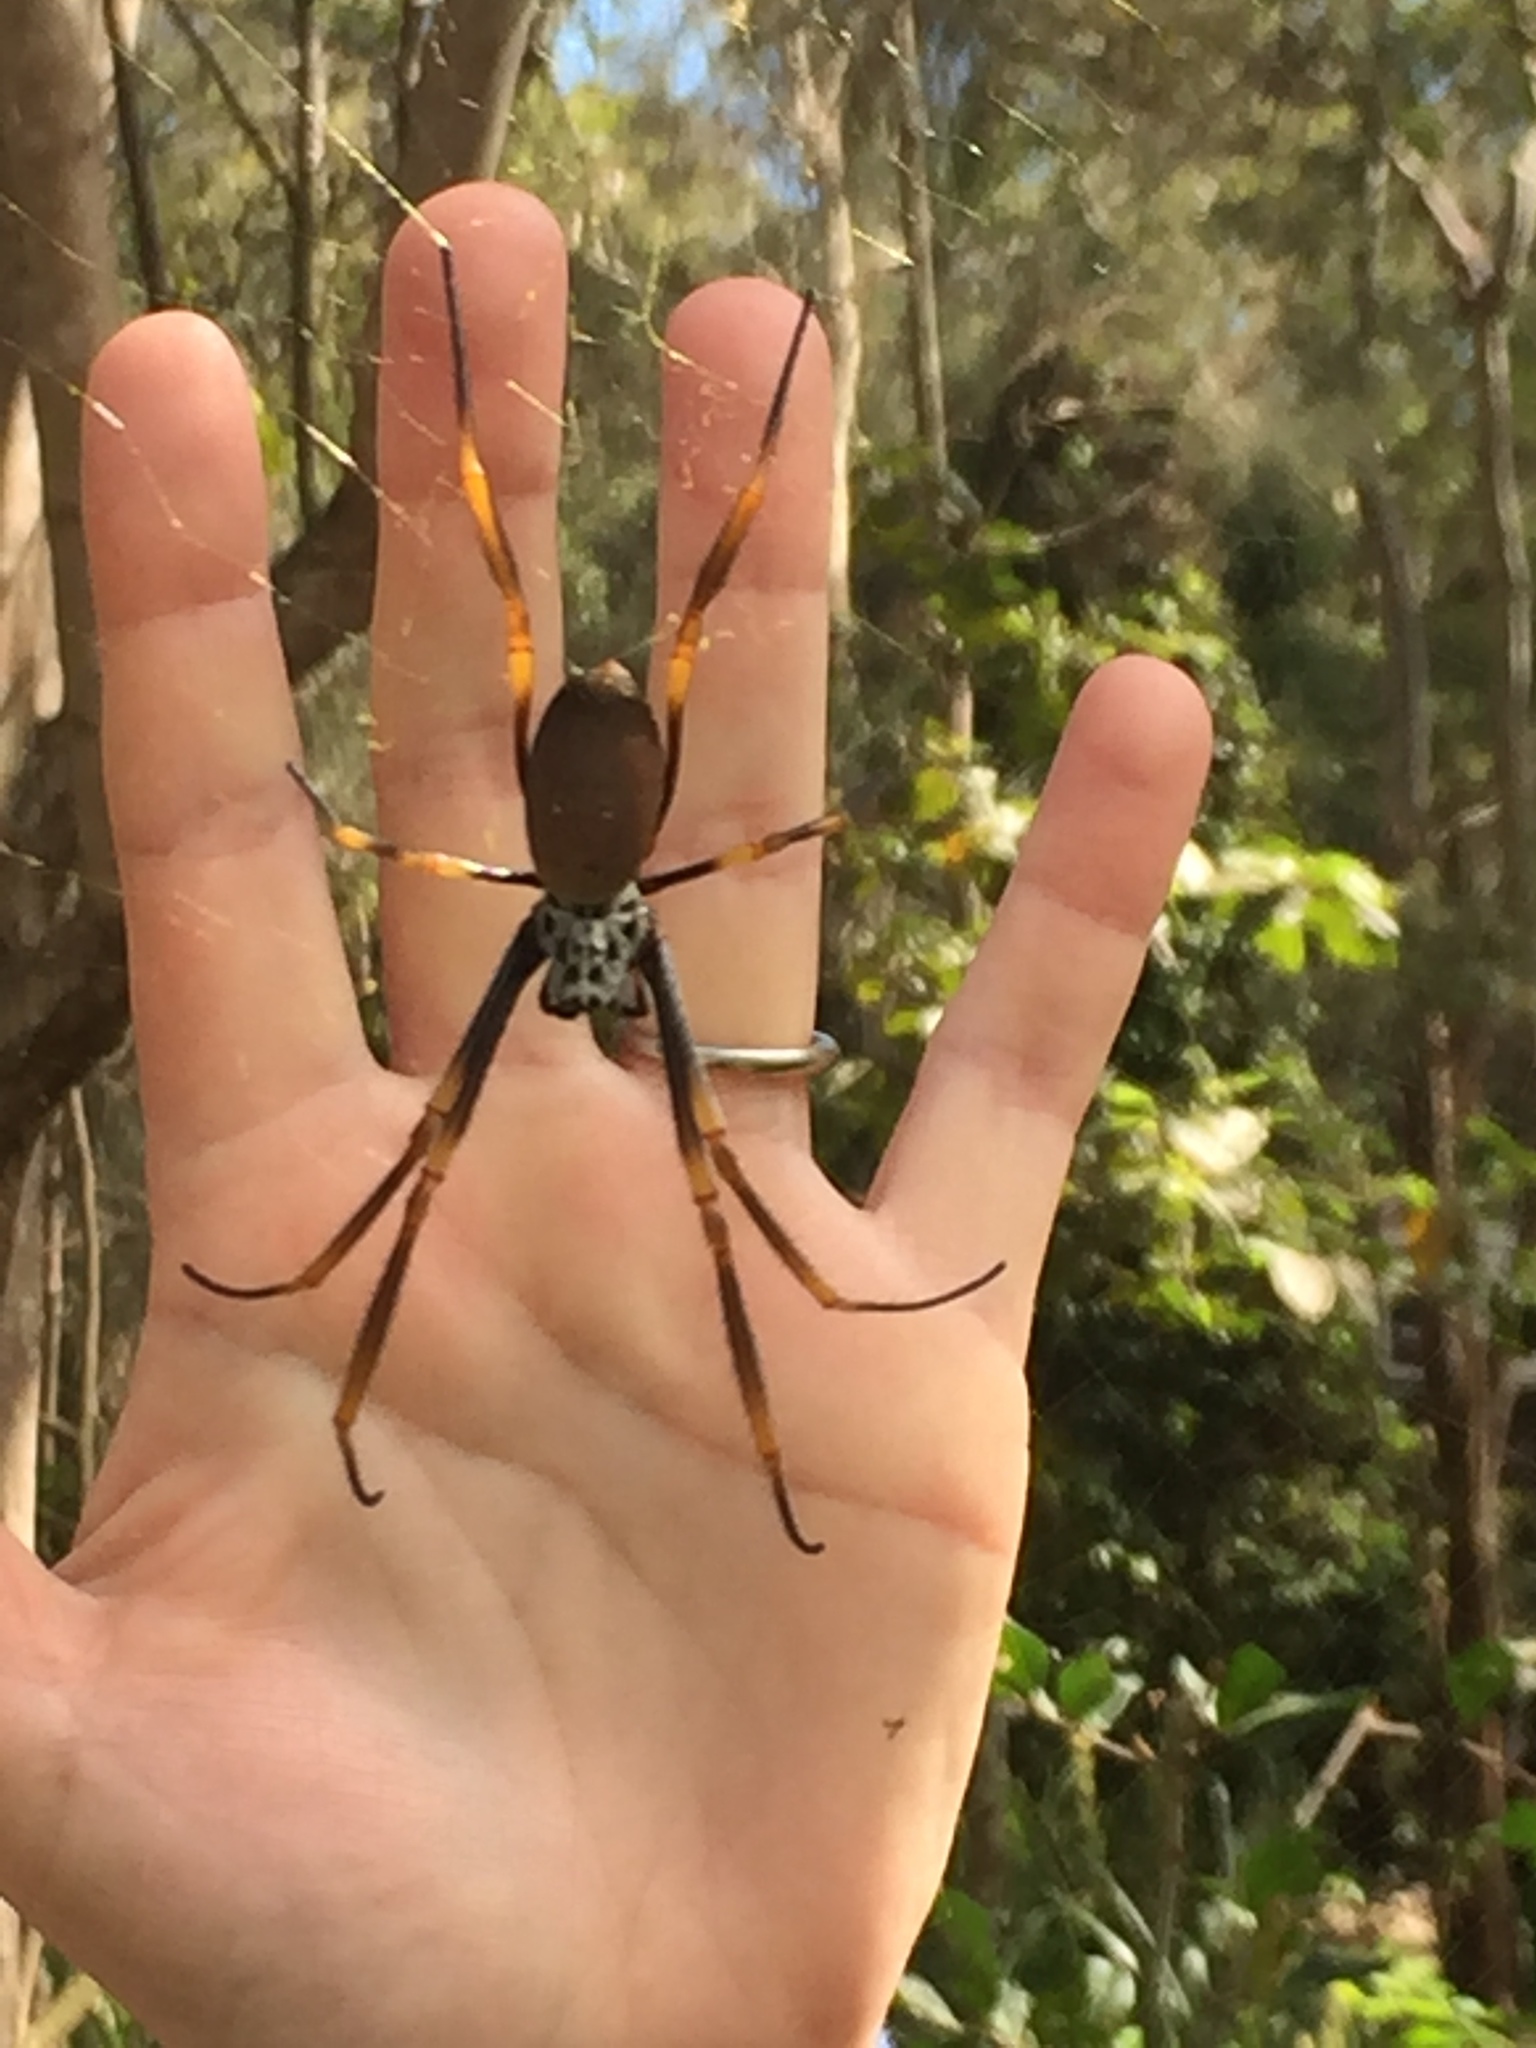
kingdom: Animalia
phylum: Arthropoda
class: Arachnida
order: Araneae
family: Araneidae
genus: Trichonephila
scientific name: Trichonephila plumipes
